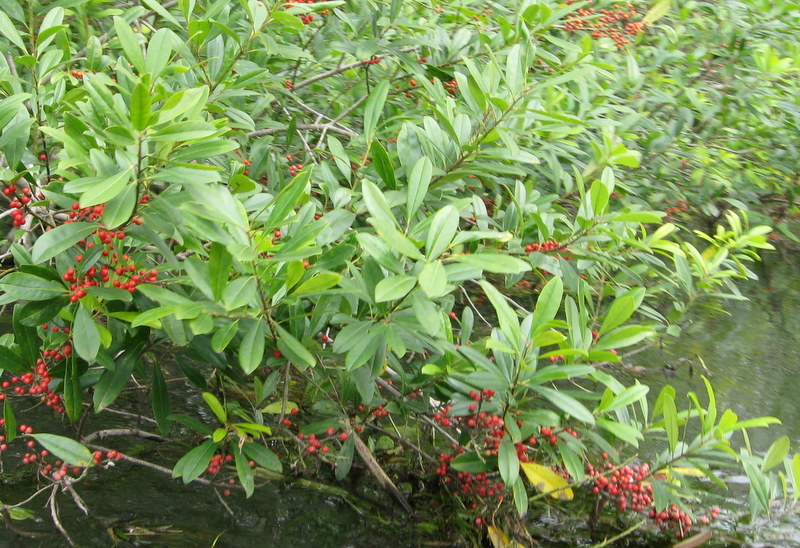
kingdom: Plantae
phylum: Tracheophyta
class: Magnoliopsida
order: Aquifoliales
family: Aquifoliaceae
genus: Ilex
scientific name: Ilex cassine
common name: Dahoon
